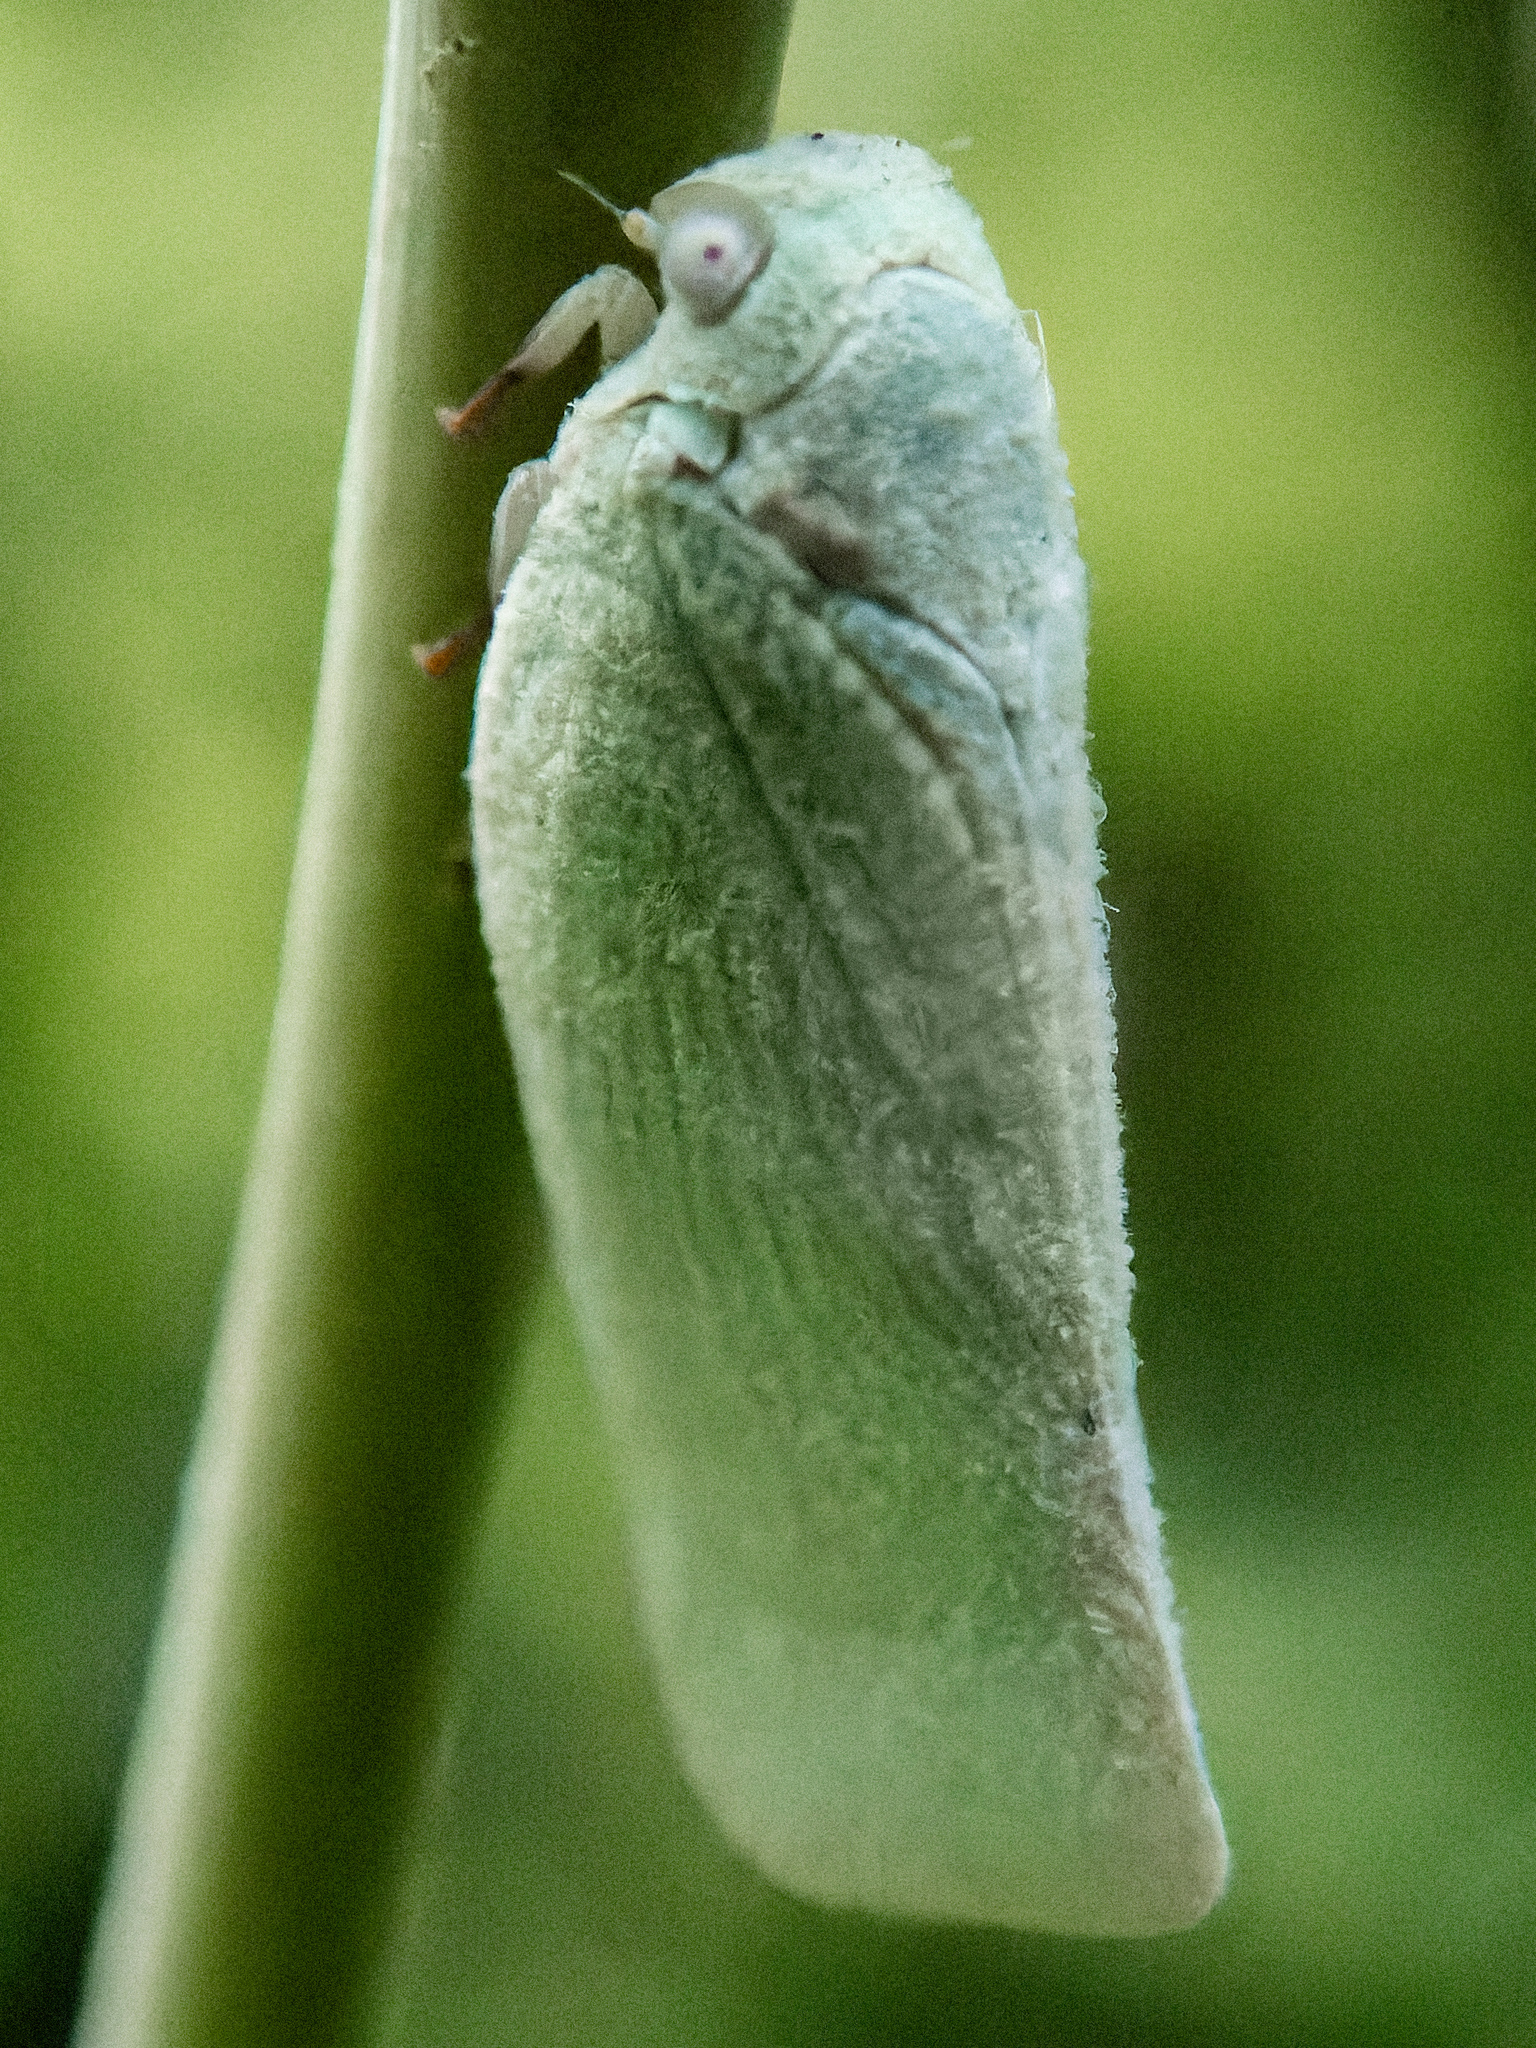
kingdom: Animalia
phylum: Arthropoda
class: Insecta
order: Hemiptera
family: Flatidae
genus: Flatormenis
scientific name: Flatormenis proxima
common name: Northern flatid planthopper
